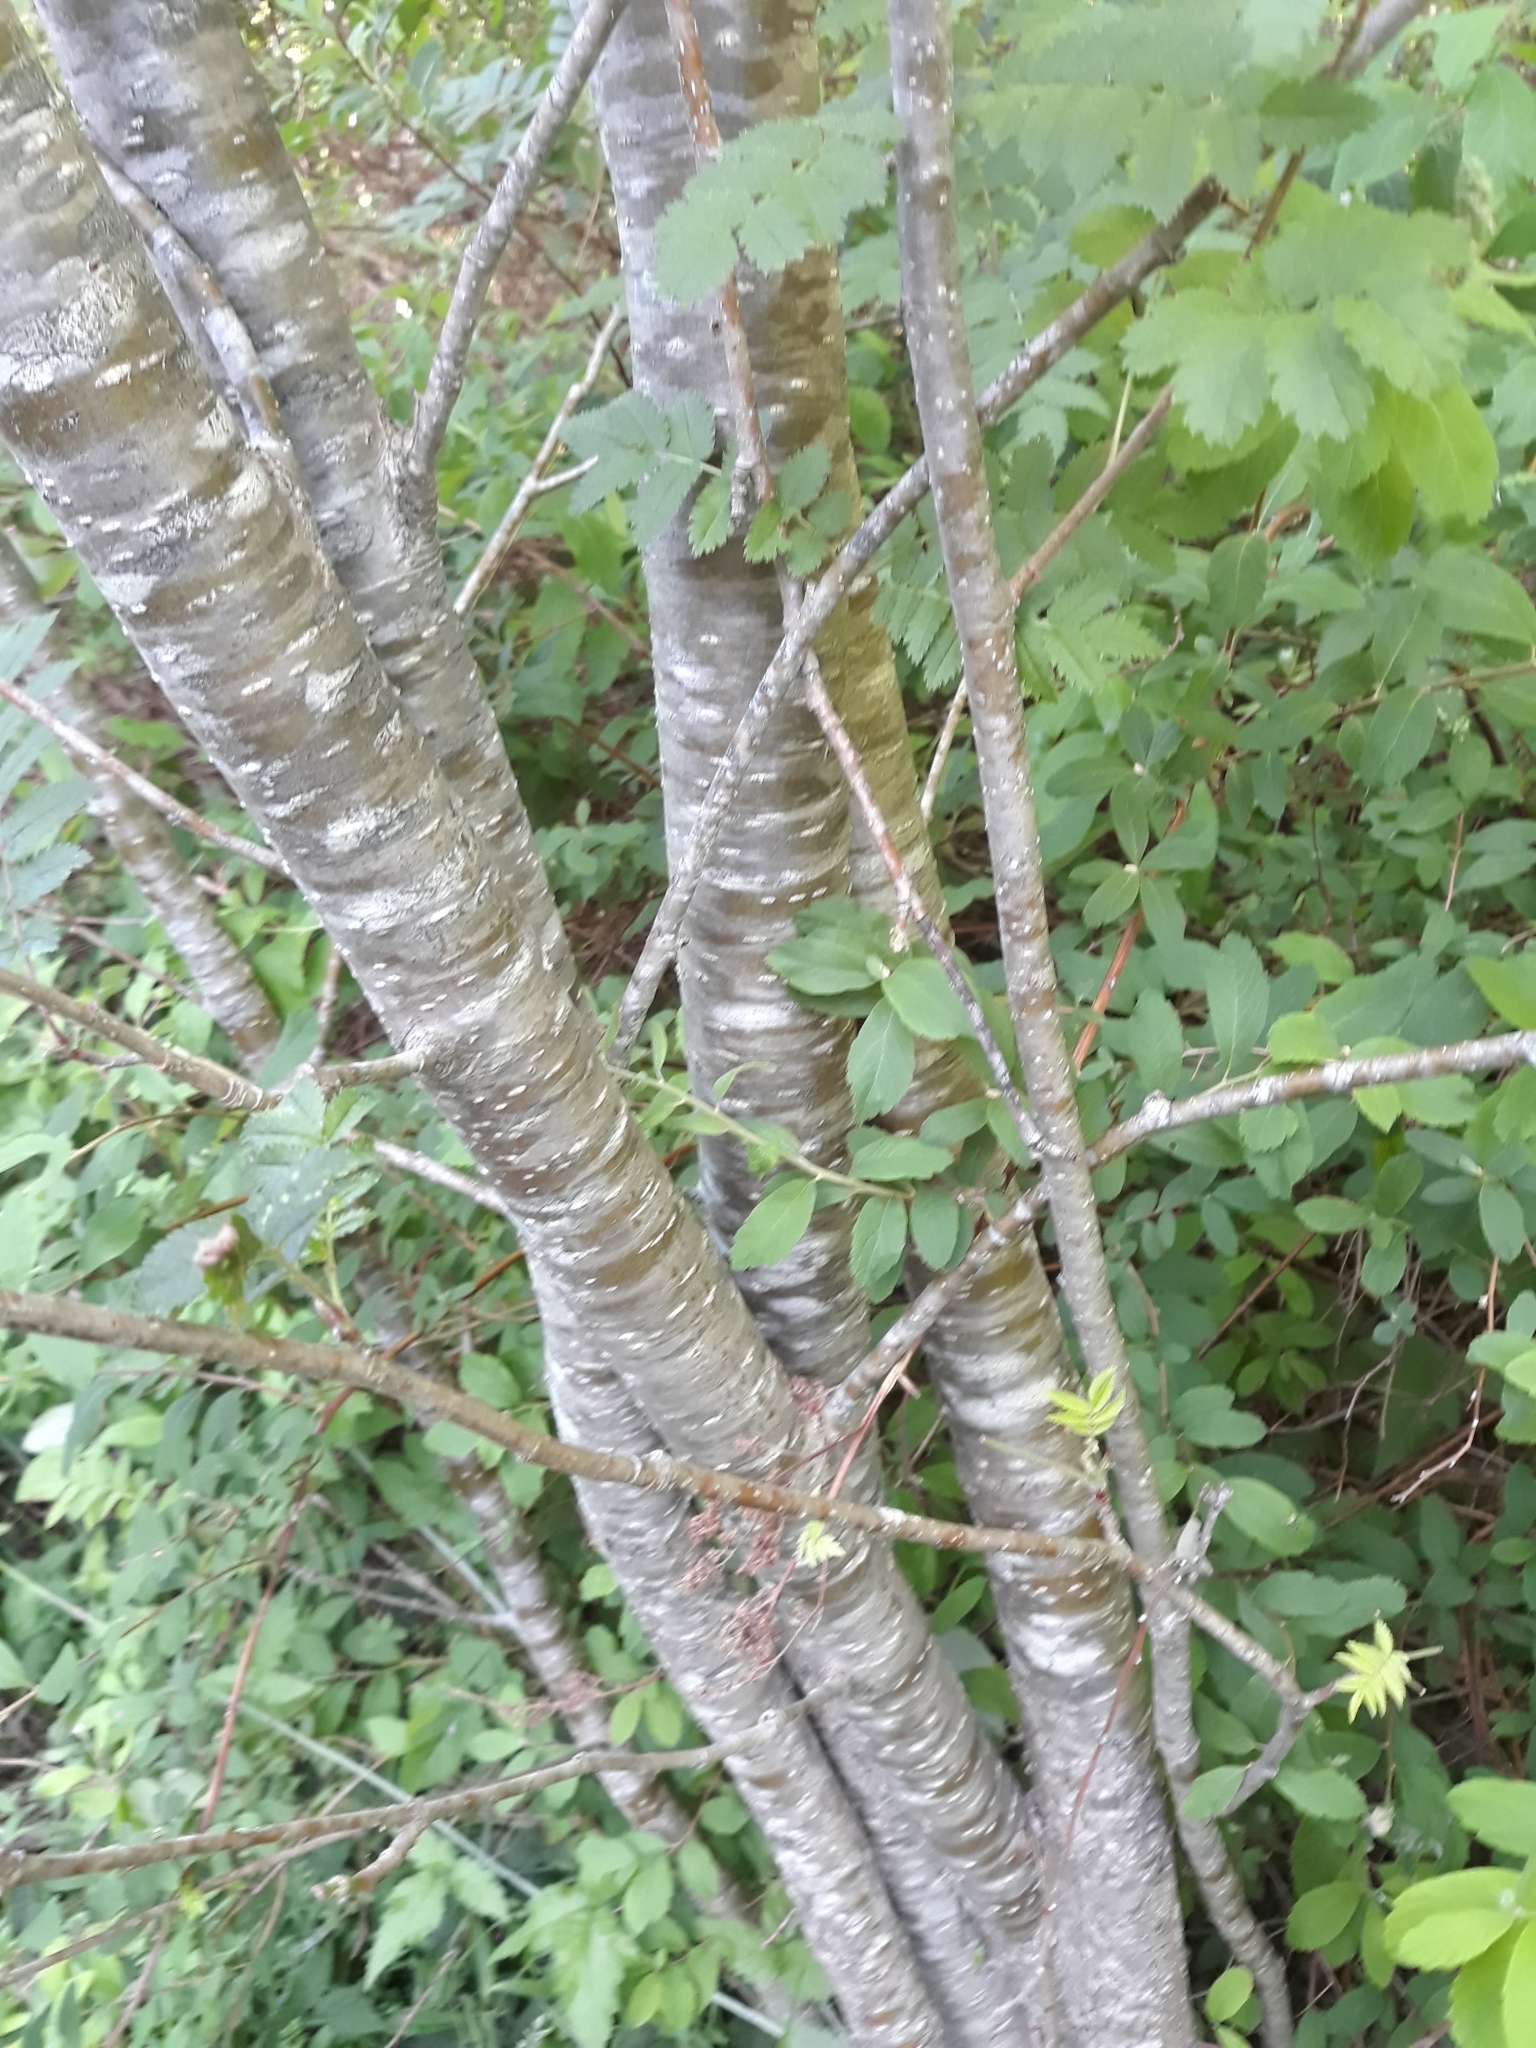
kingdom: Plantae
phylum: Tracheophyta
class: Magnoliopsida
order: Rosales
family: Rosaceae
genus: Sorbus
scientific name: Sorbus aucuparia
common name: Rowan
